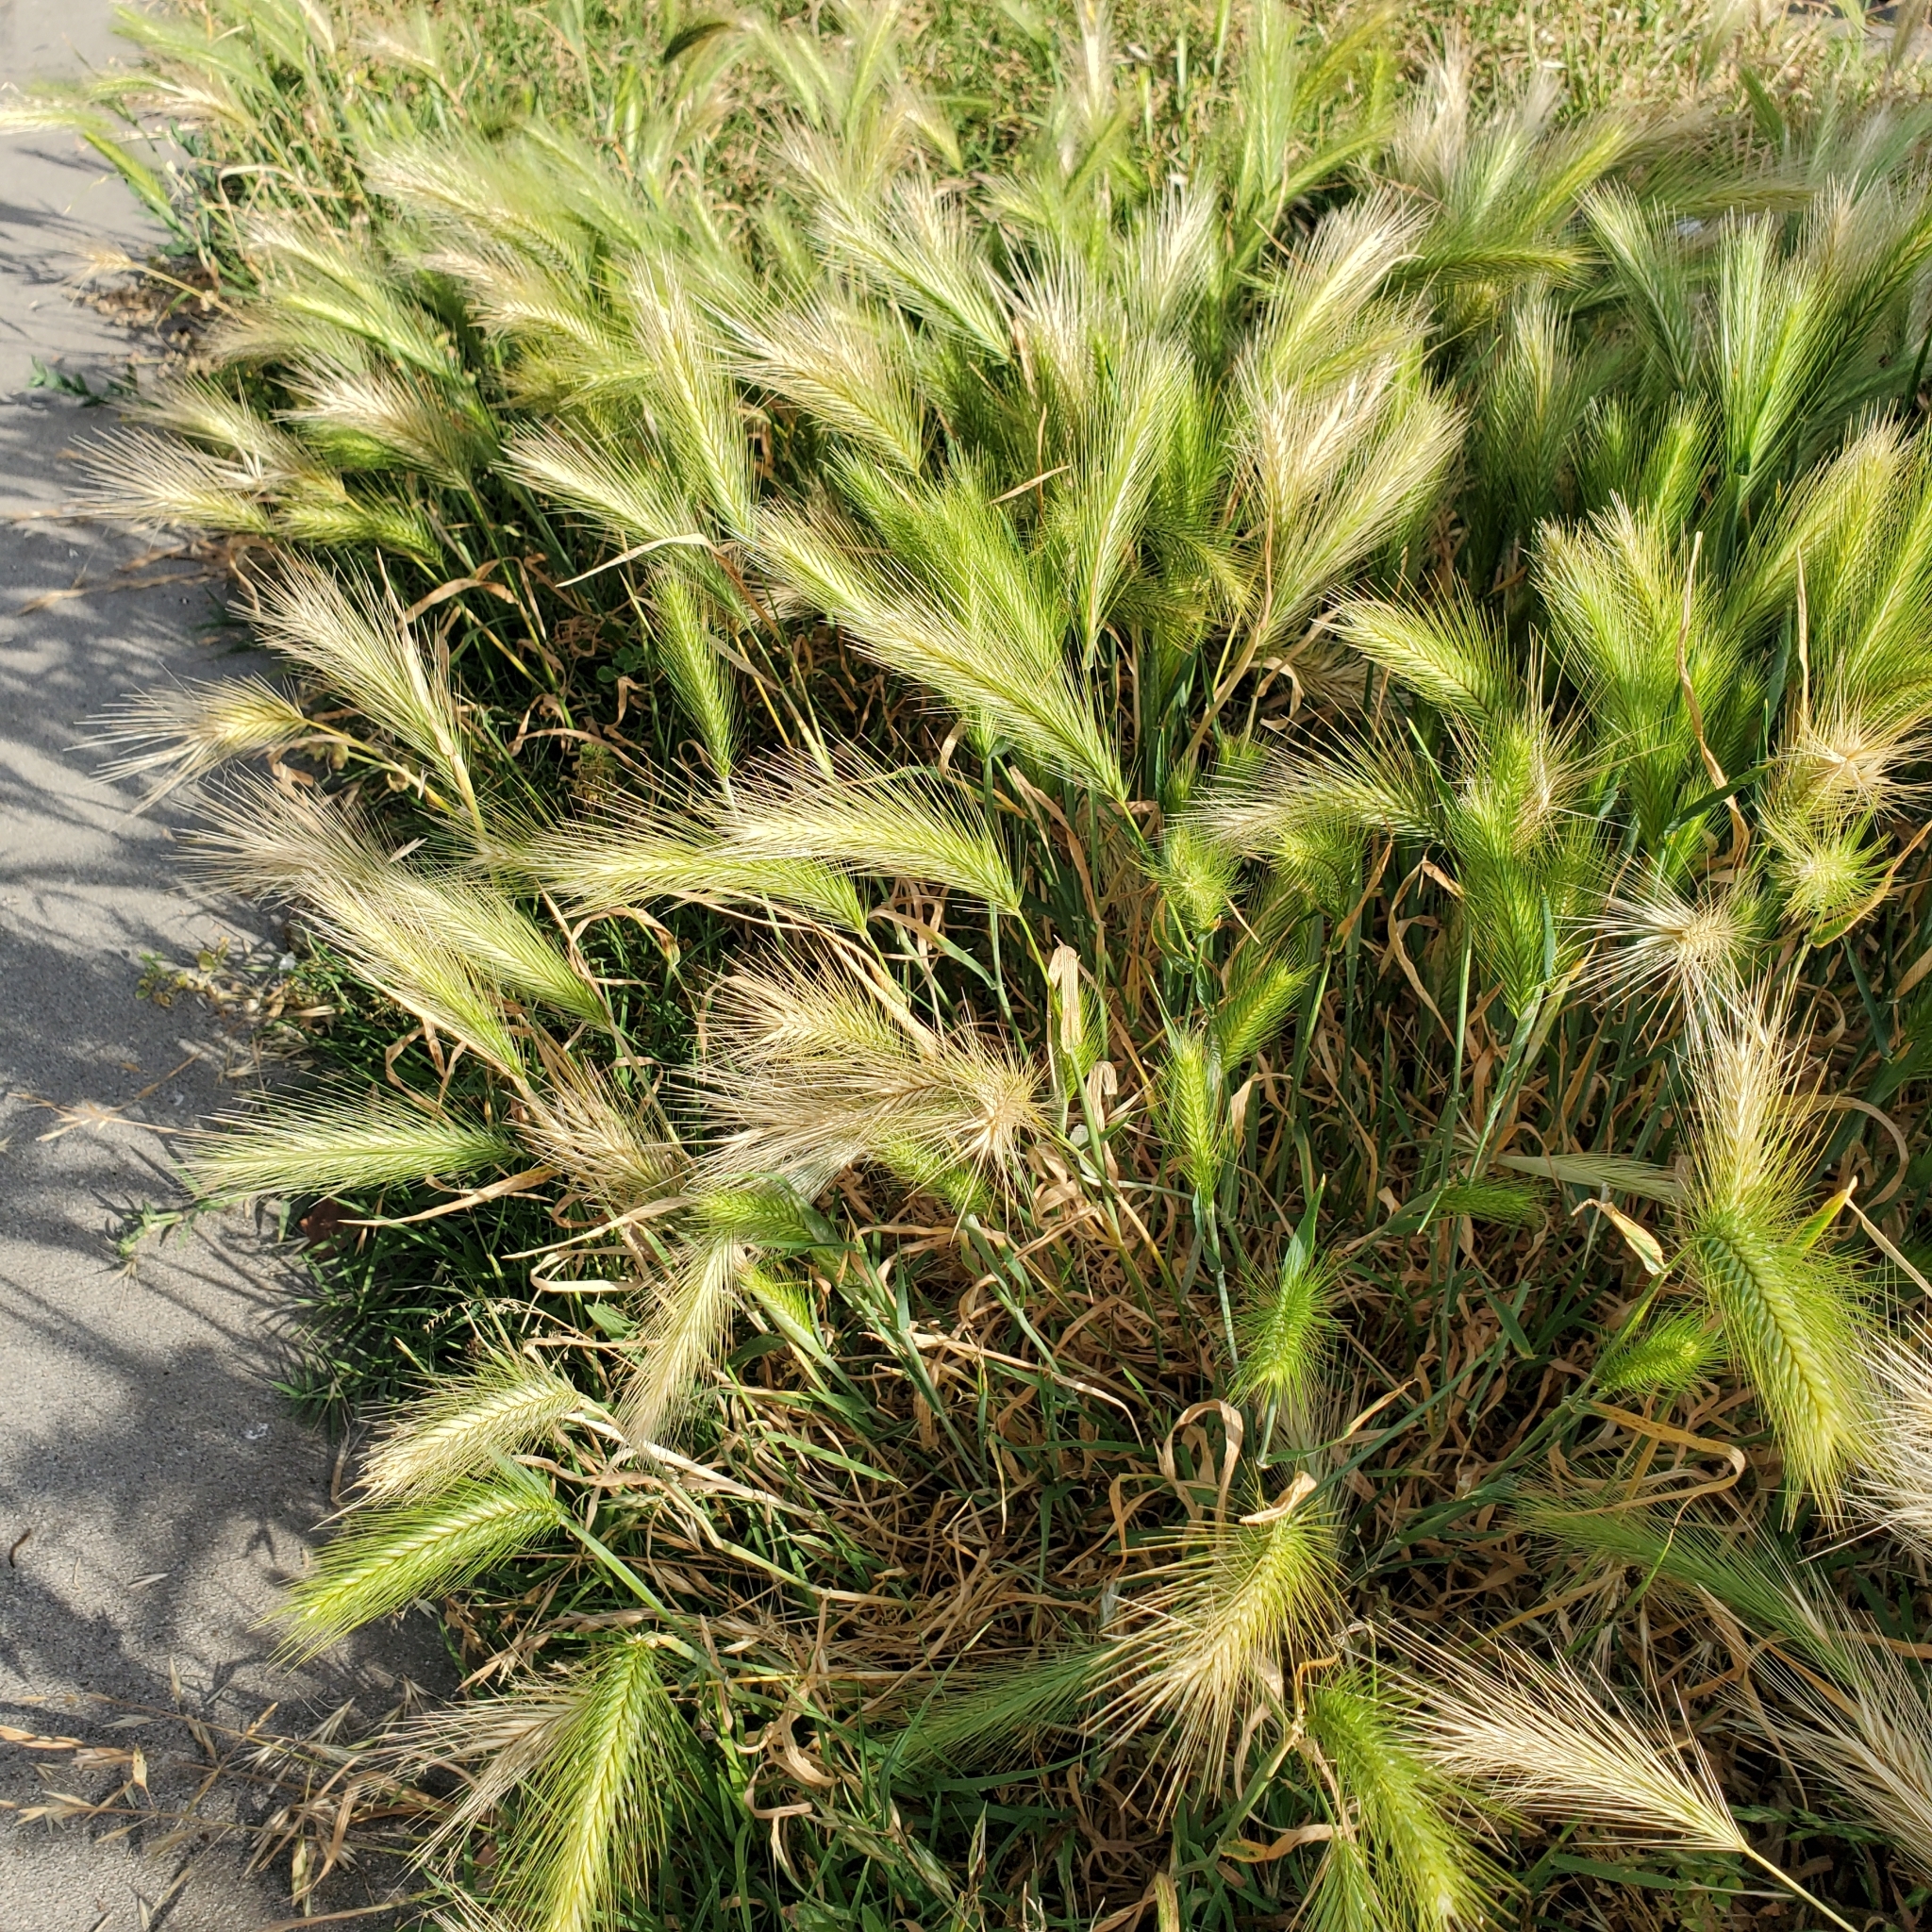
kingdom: Plantae
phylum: Tracheophyta
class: Liliopsida
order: Poales
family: Poaceae
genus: Hordeum
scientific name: Hordeum murinum
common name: Wall barley
